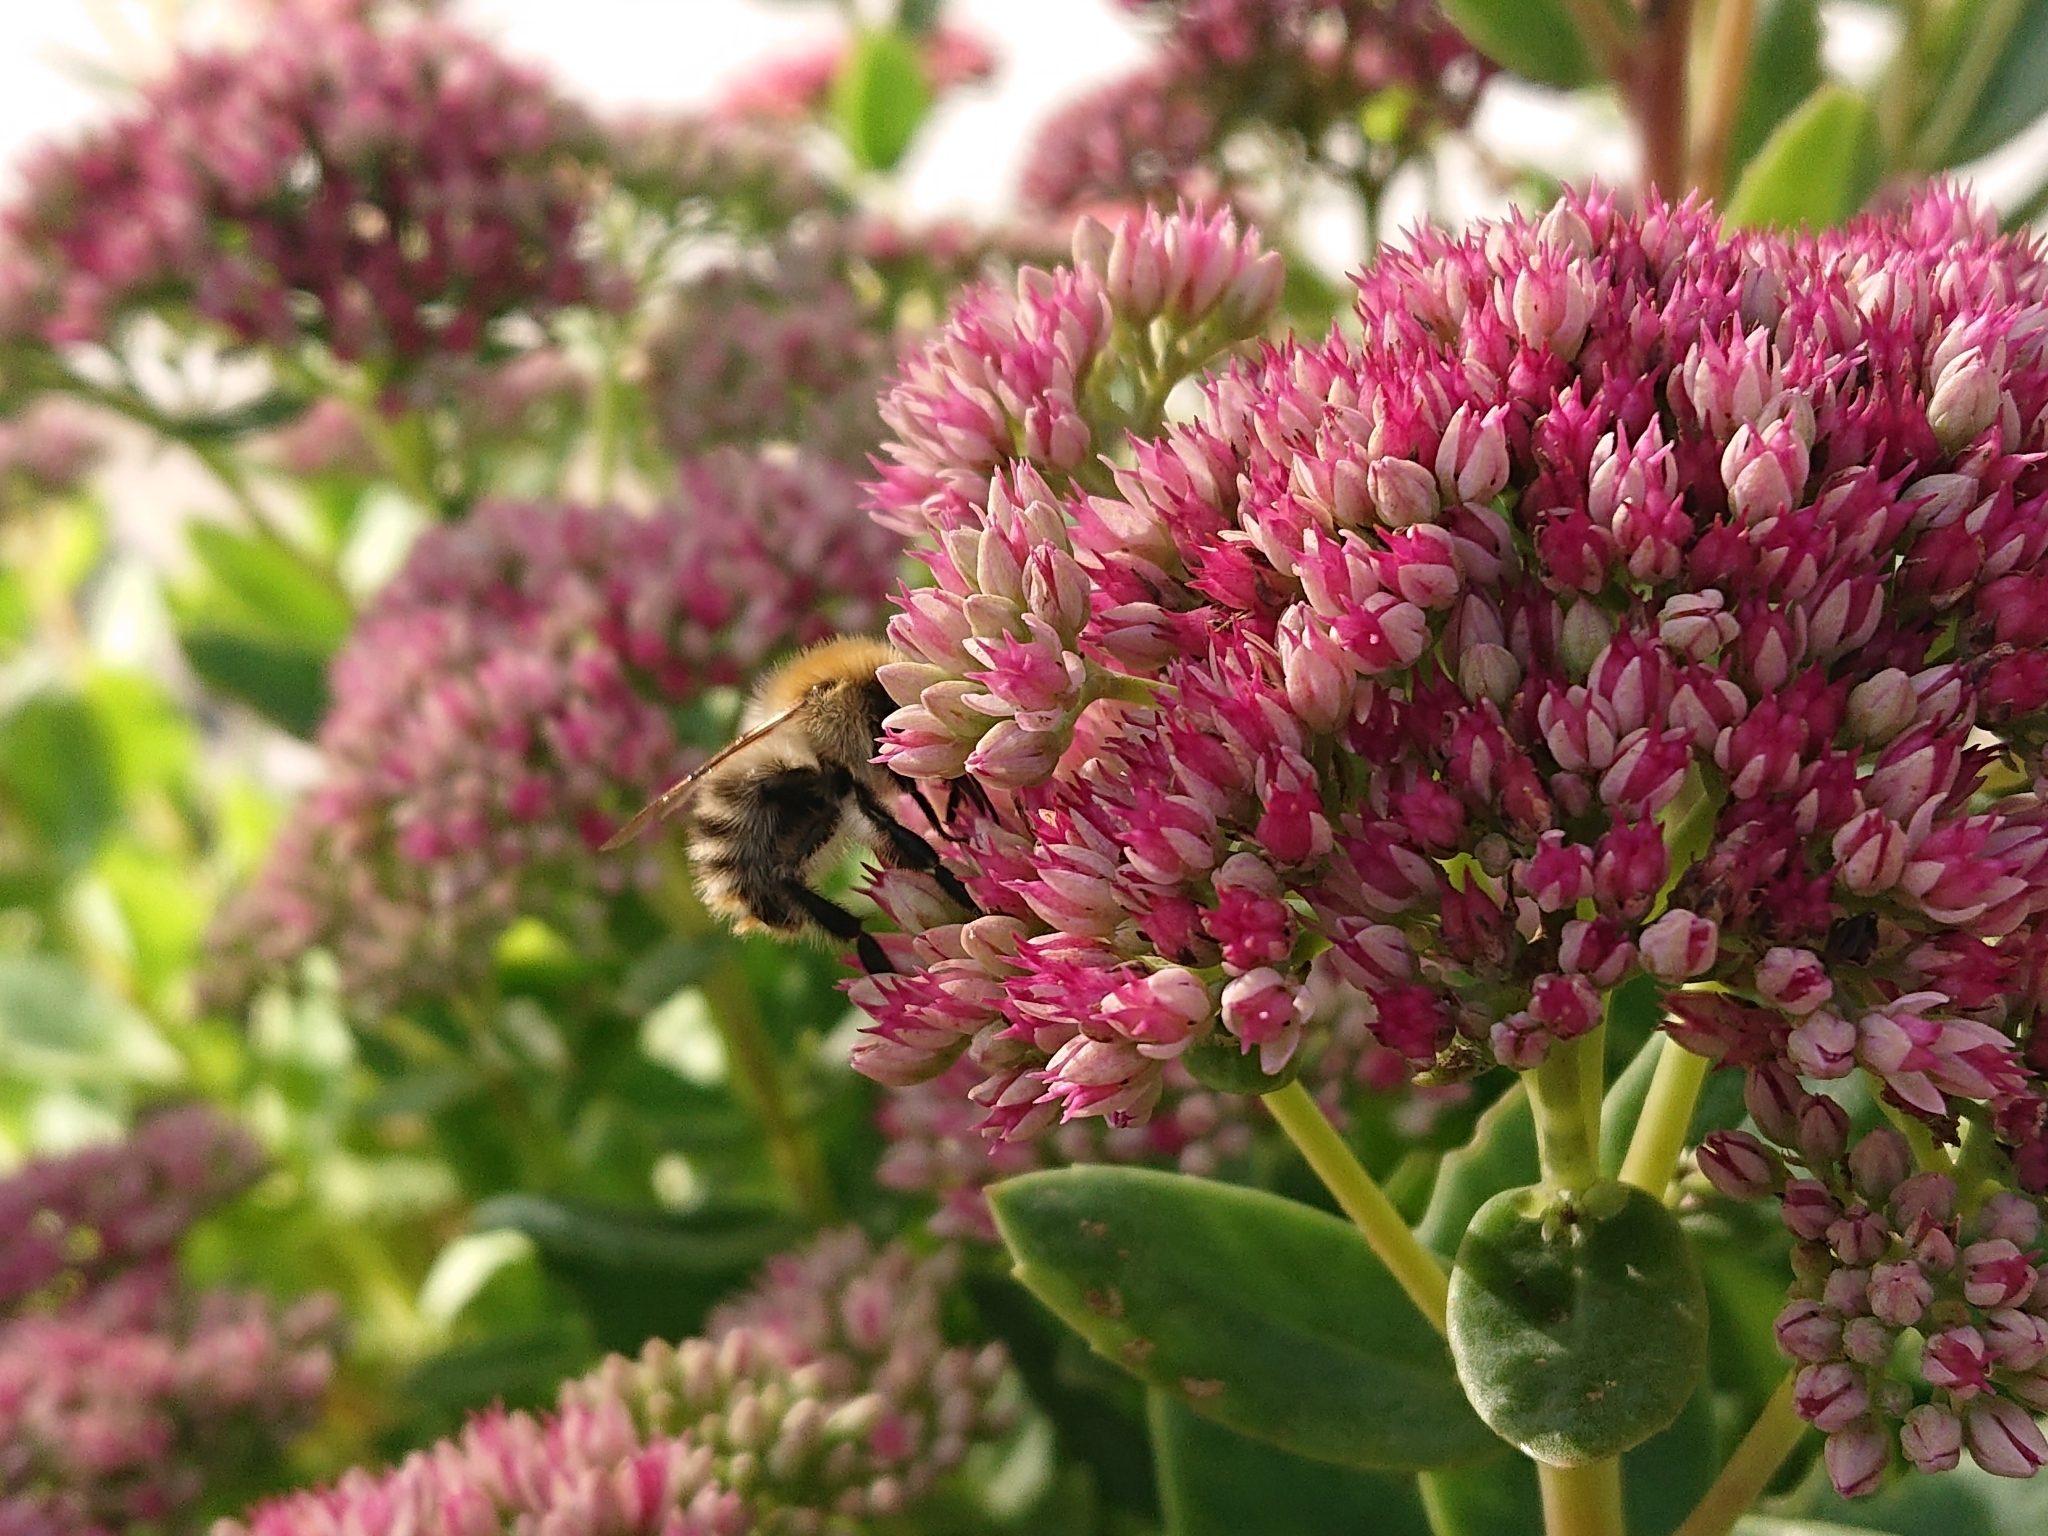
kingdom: Animalia
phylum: Arthropoda
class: Insecta
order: Hymenoptera
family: Apidae
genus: Bombus
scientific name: Bombus pascuorum
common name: Common carder bee
